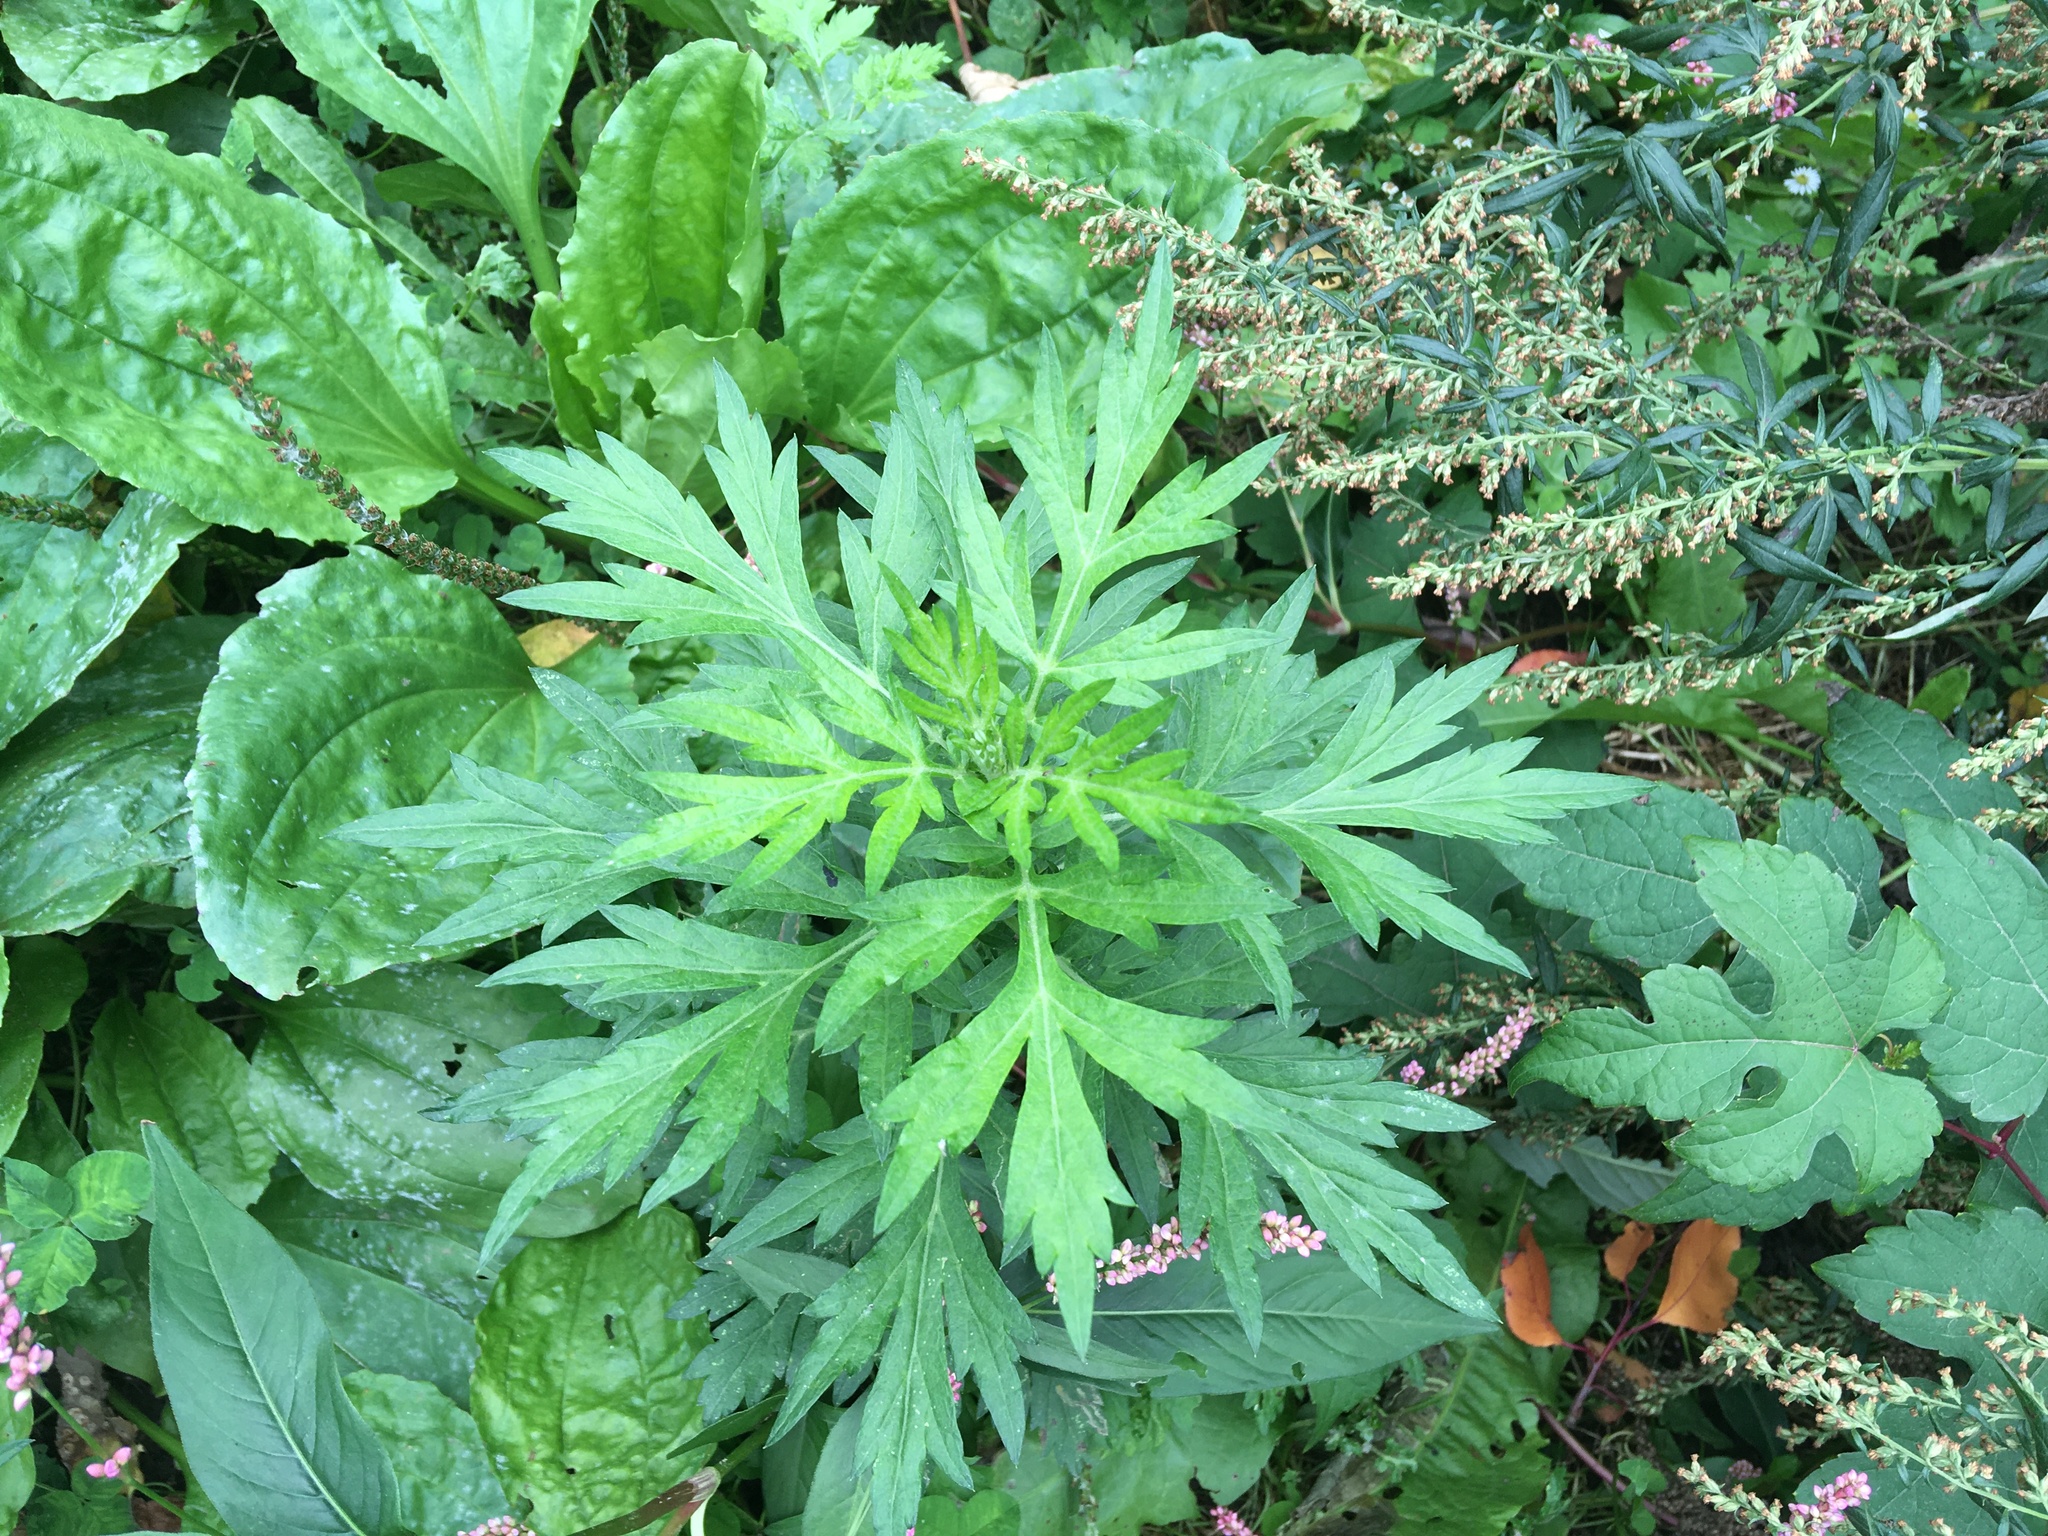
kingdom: Plantae
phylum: Tracheophyta
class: Magnoliopsida
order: Asterales
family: Asteraceae
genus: Artemisia
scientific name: Artemisia vulgaris
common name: Mugwort
